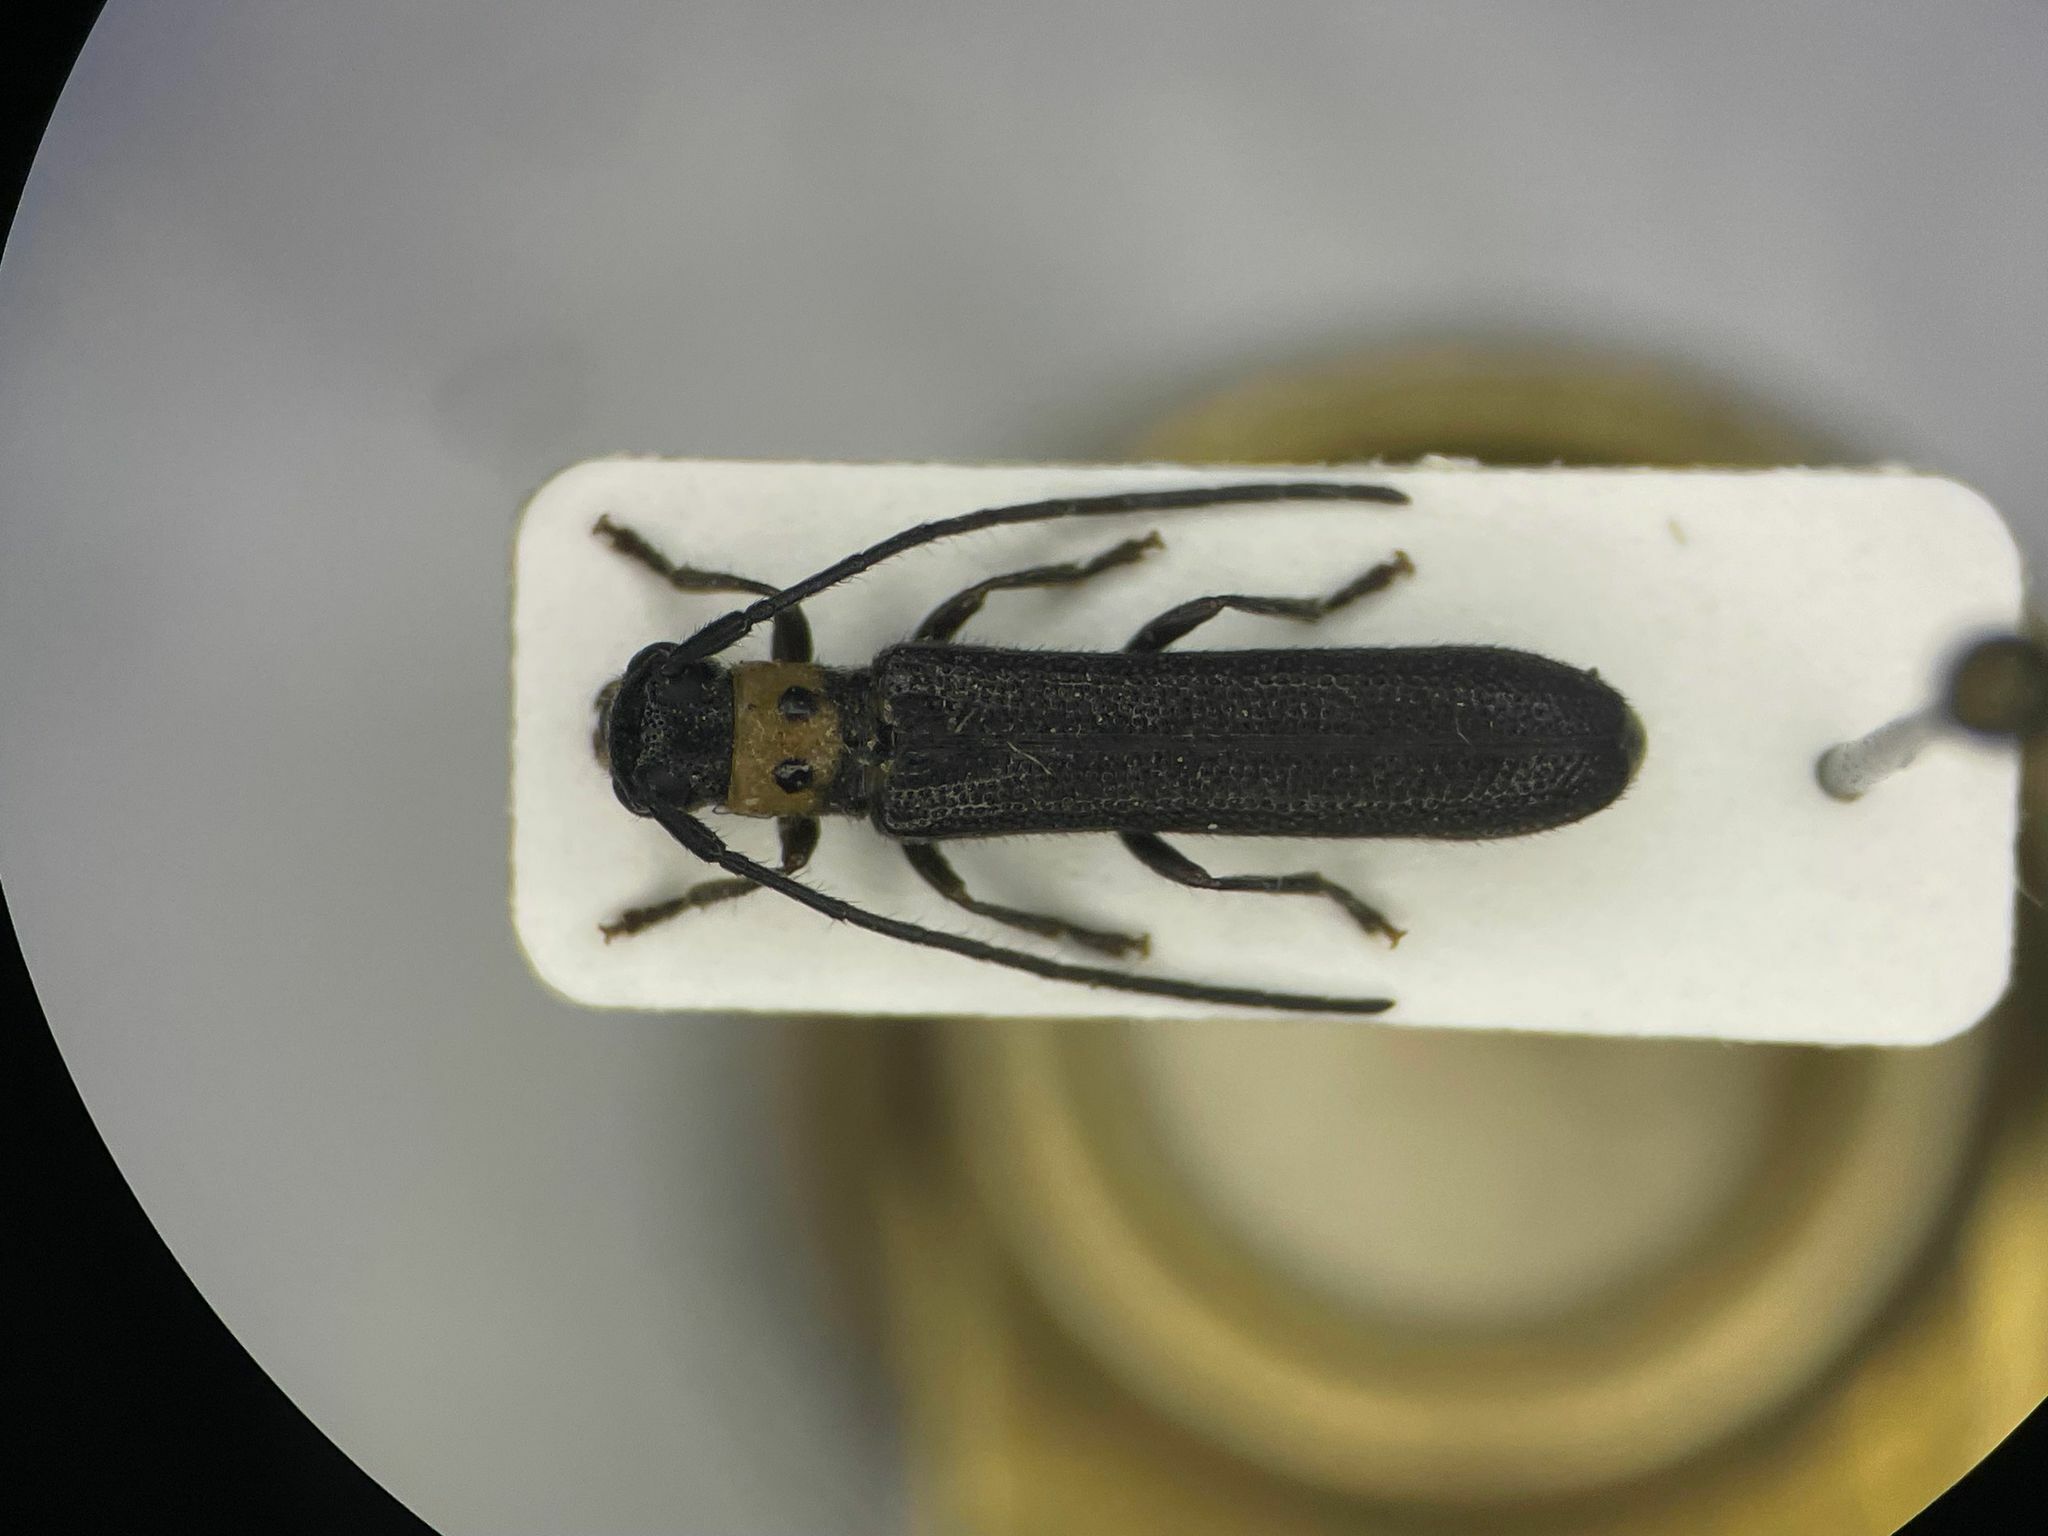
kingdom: Animalia
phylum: Arthropoda
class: Insecta
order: Coleoptera
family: Cerambycidae
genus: Oberea
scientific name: Oberea perspicillata
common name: Raspberry cane borer
